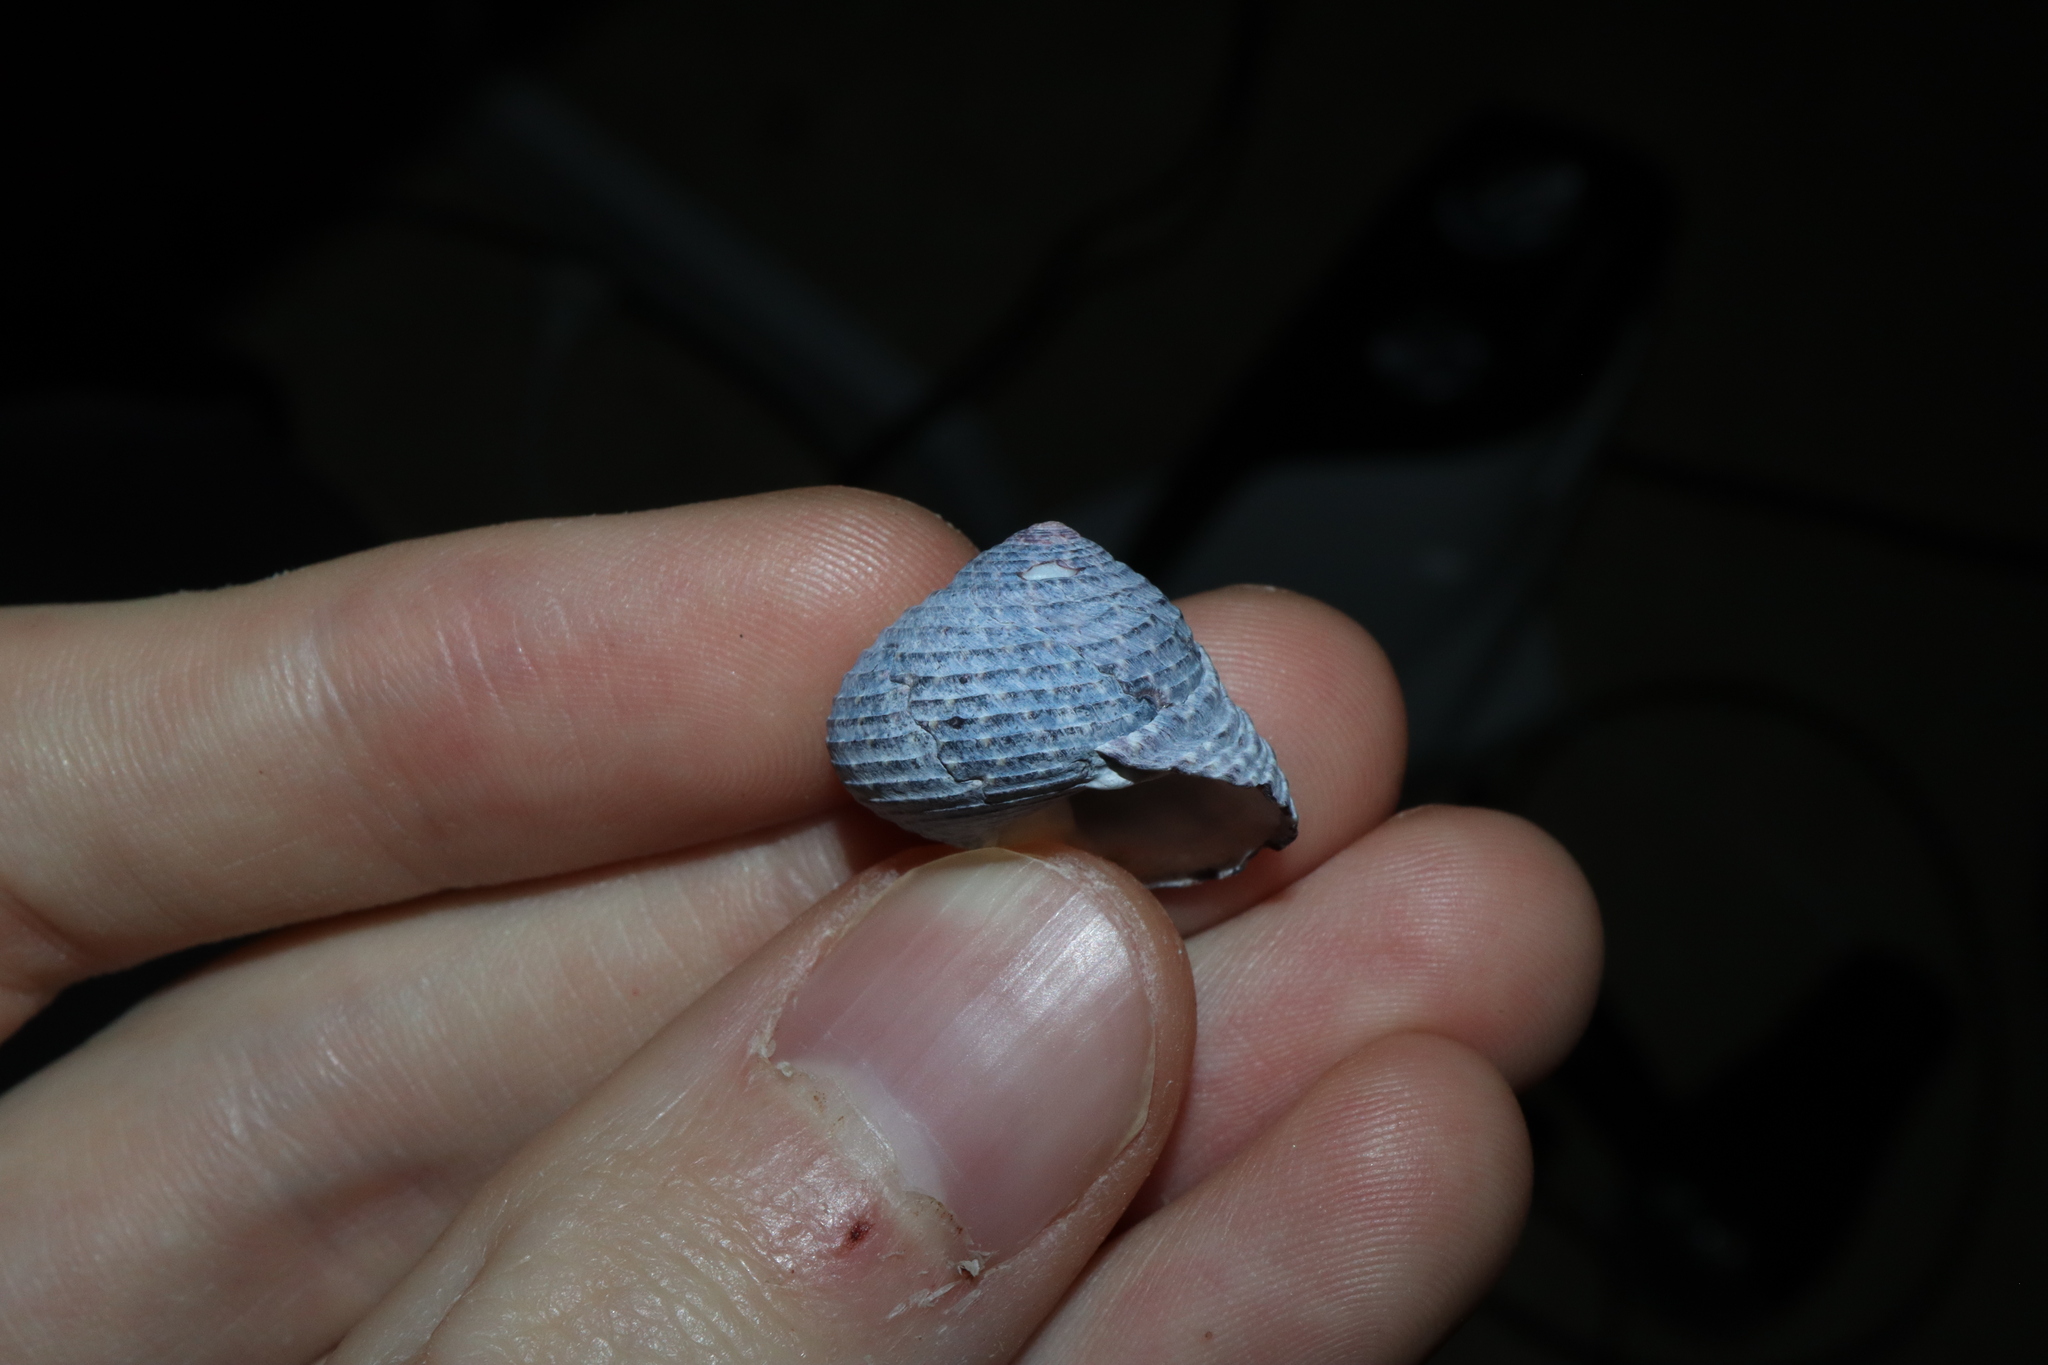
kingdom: Animalia
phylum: Mollusca
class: Gastropoda
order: Trochida
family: Trochidae
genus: Diloma
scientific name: Diloma concameratum
